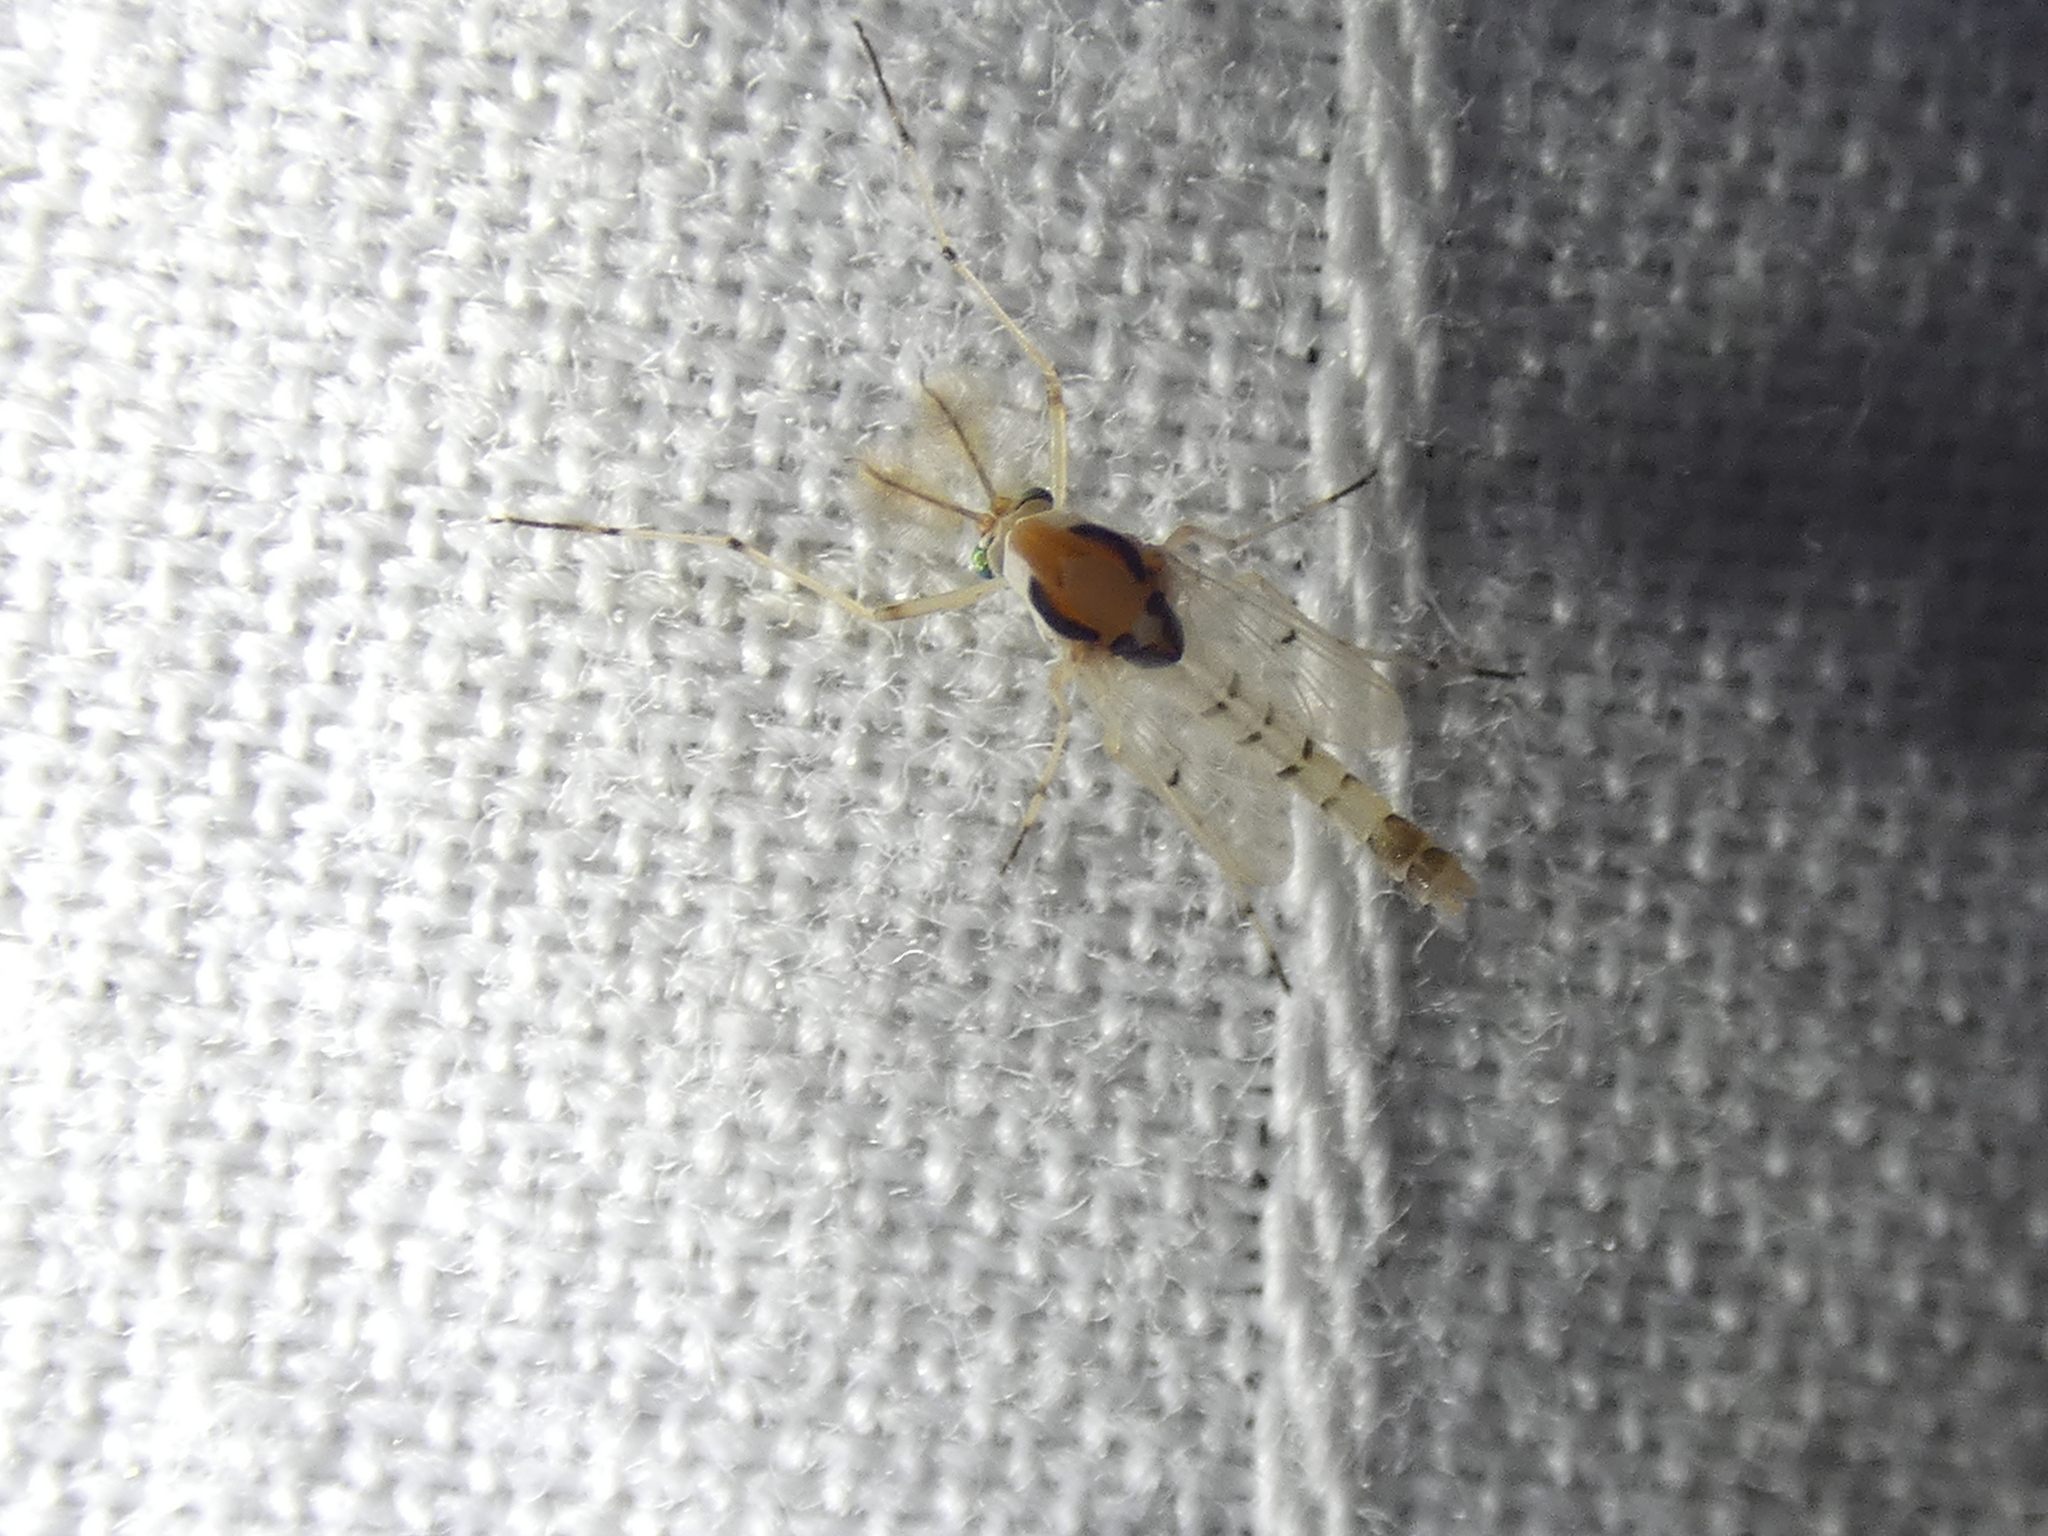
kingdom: Animalia
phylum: Arthropoda
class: Insecta
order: Diptera
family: Chironomidae
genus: Coelotanypus
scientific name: Coelotanypus concinnus
